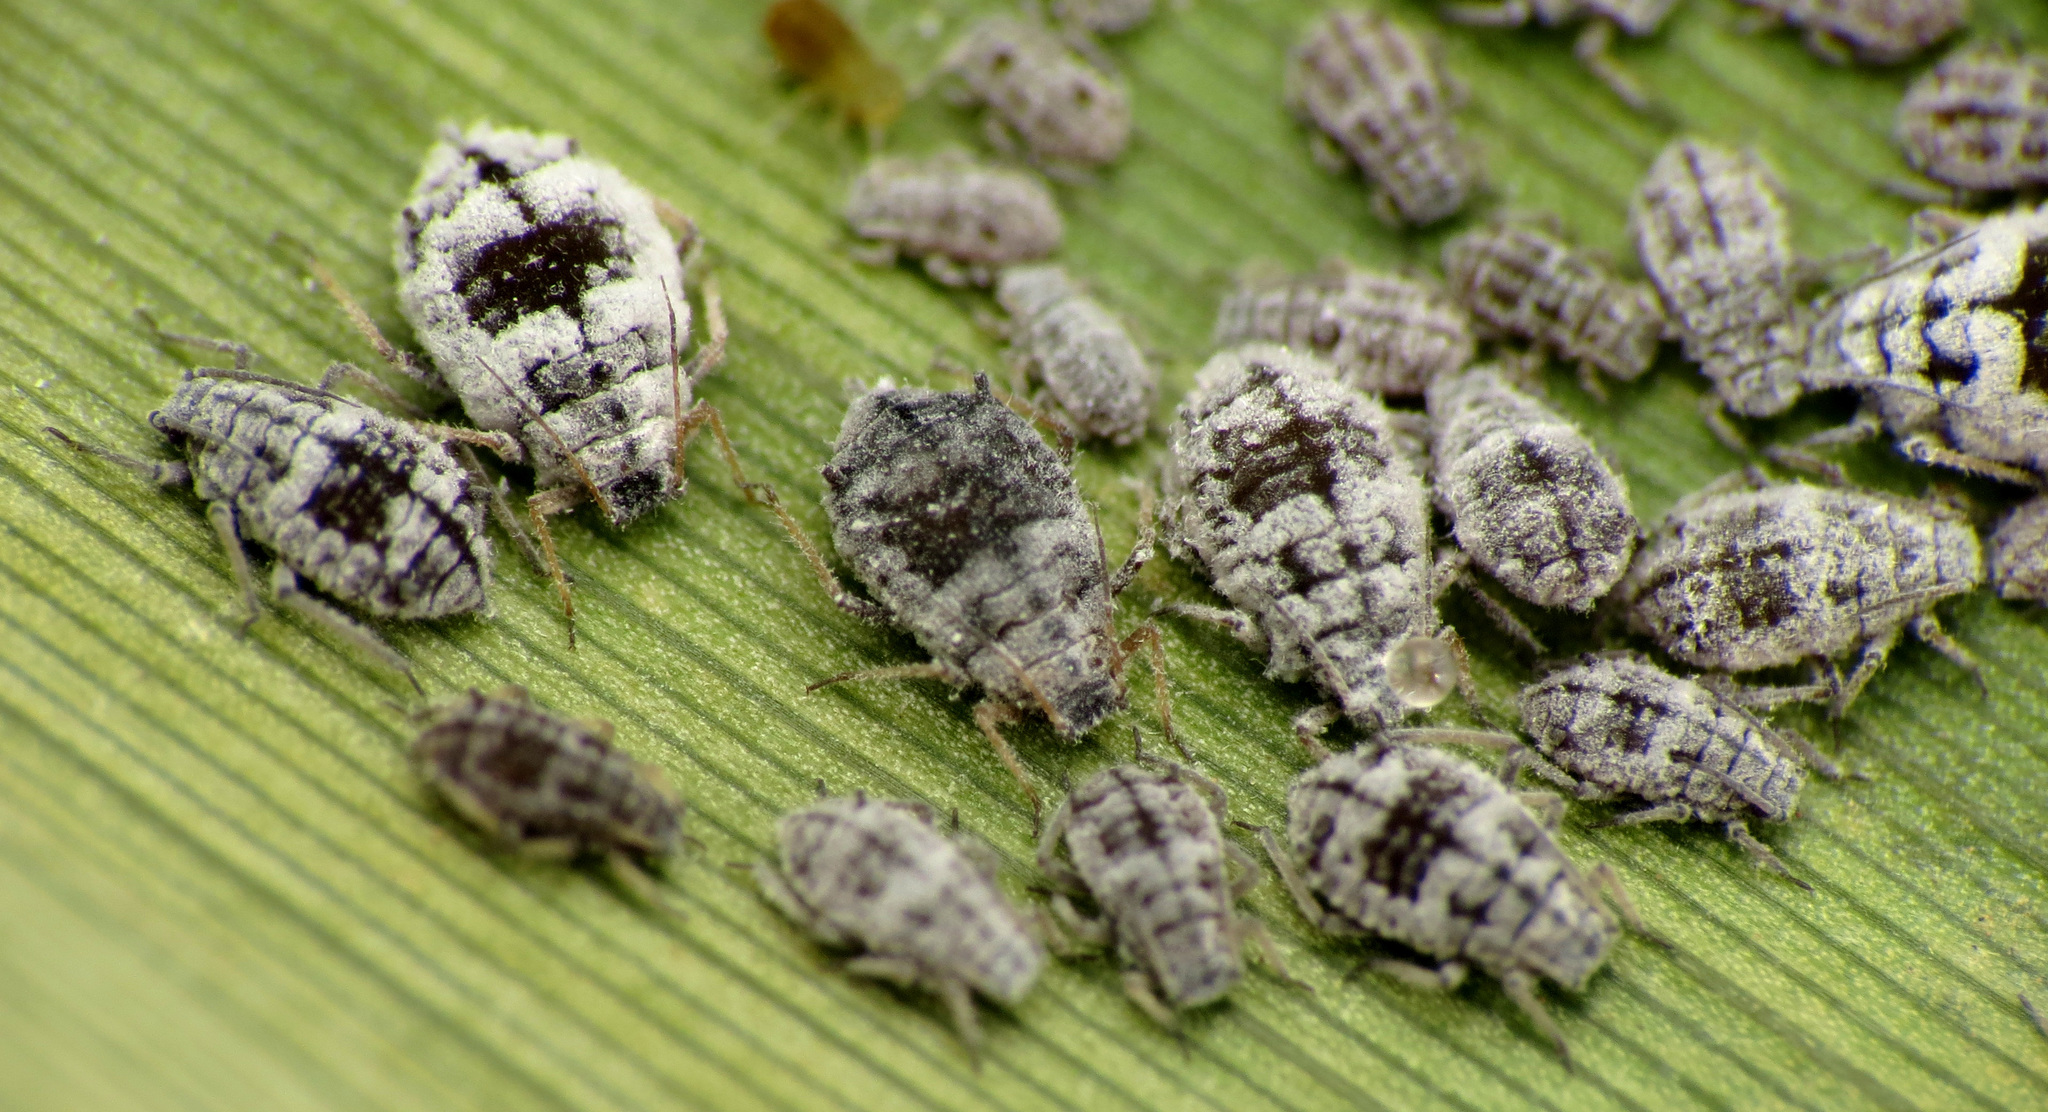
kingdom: Animalia
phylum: Arthropoda
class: Insecta
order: Hemiptera
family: Aphididae
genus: Melanaphis
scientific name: Melanaphis donacis
